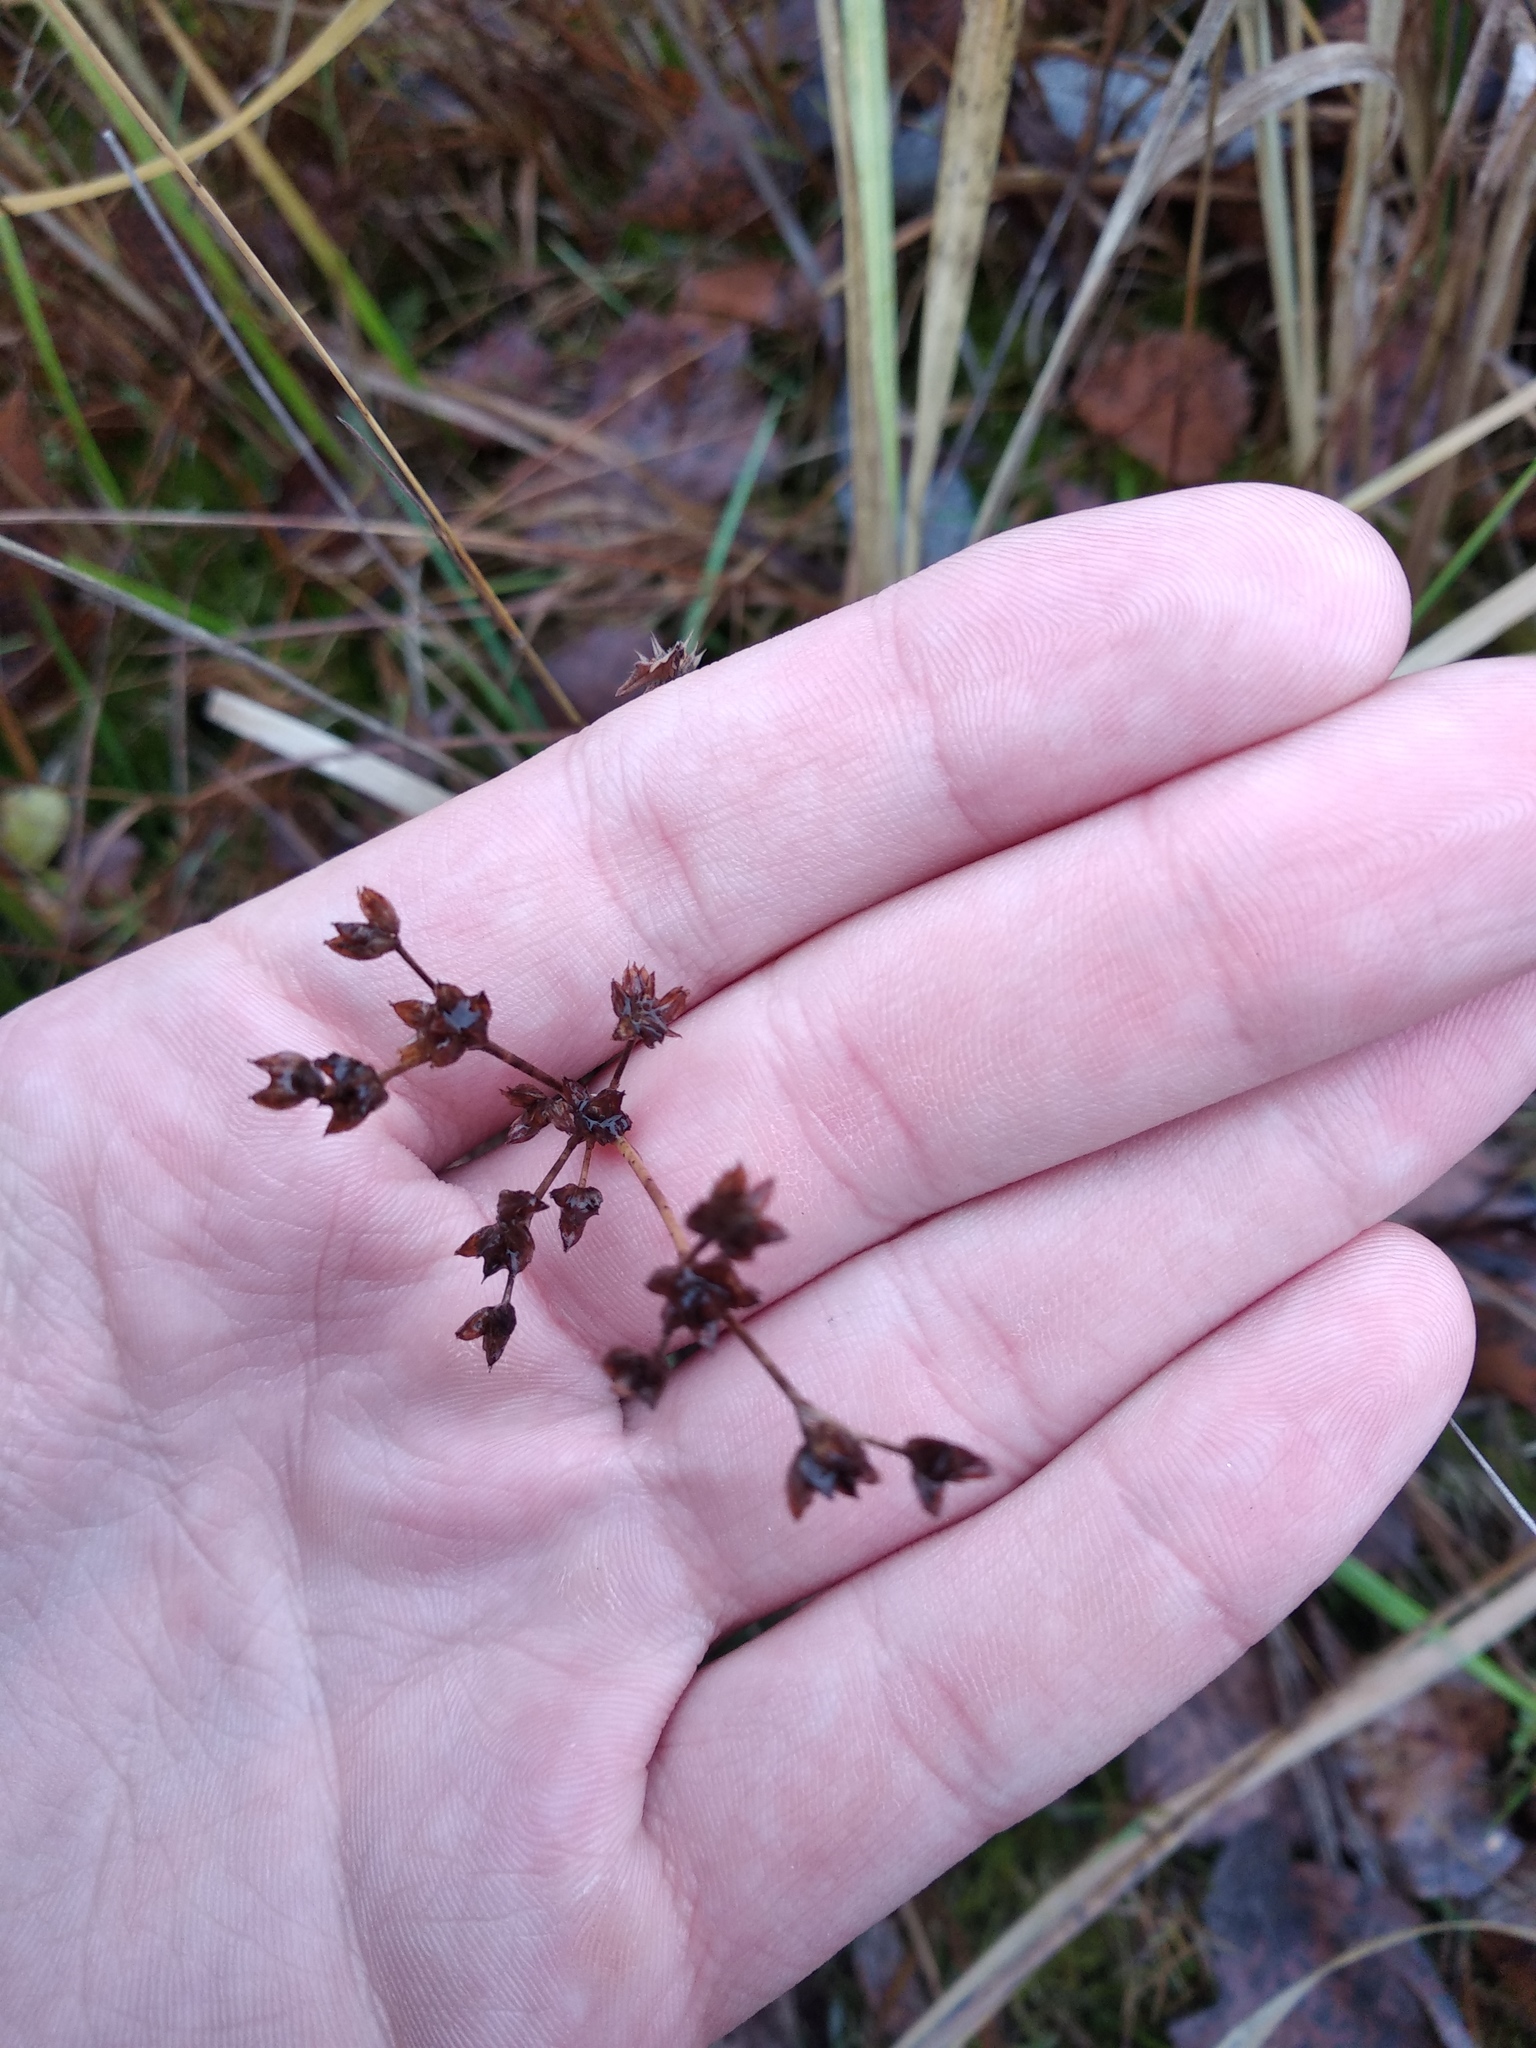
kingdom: Plantae
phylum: Tracheophyta
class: Liliopsida
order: Poales
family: Juncaceae
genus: Juncus
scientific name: Juncus articulatus
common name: Jointed rush
